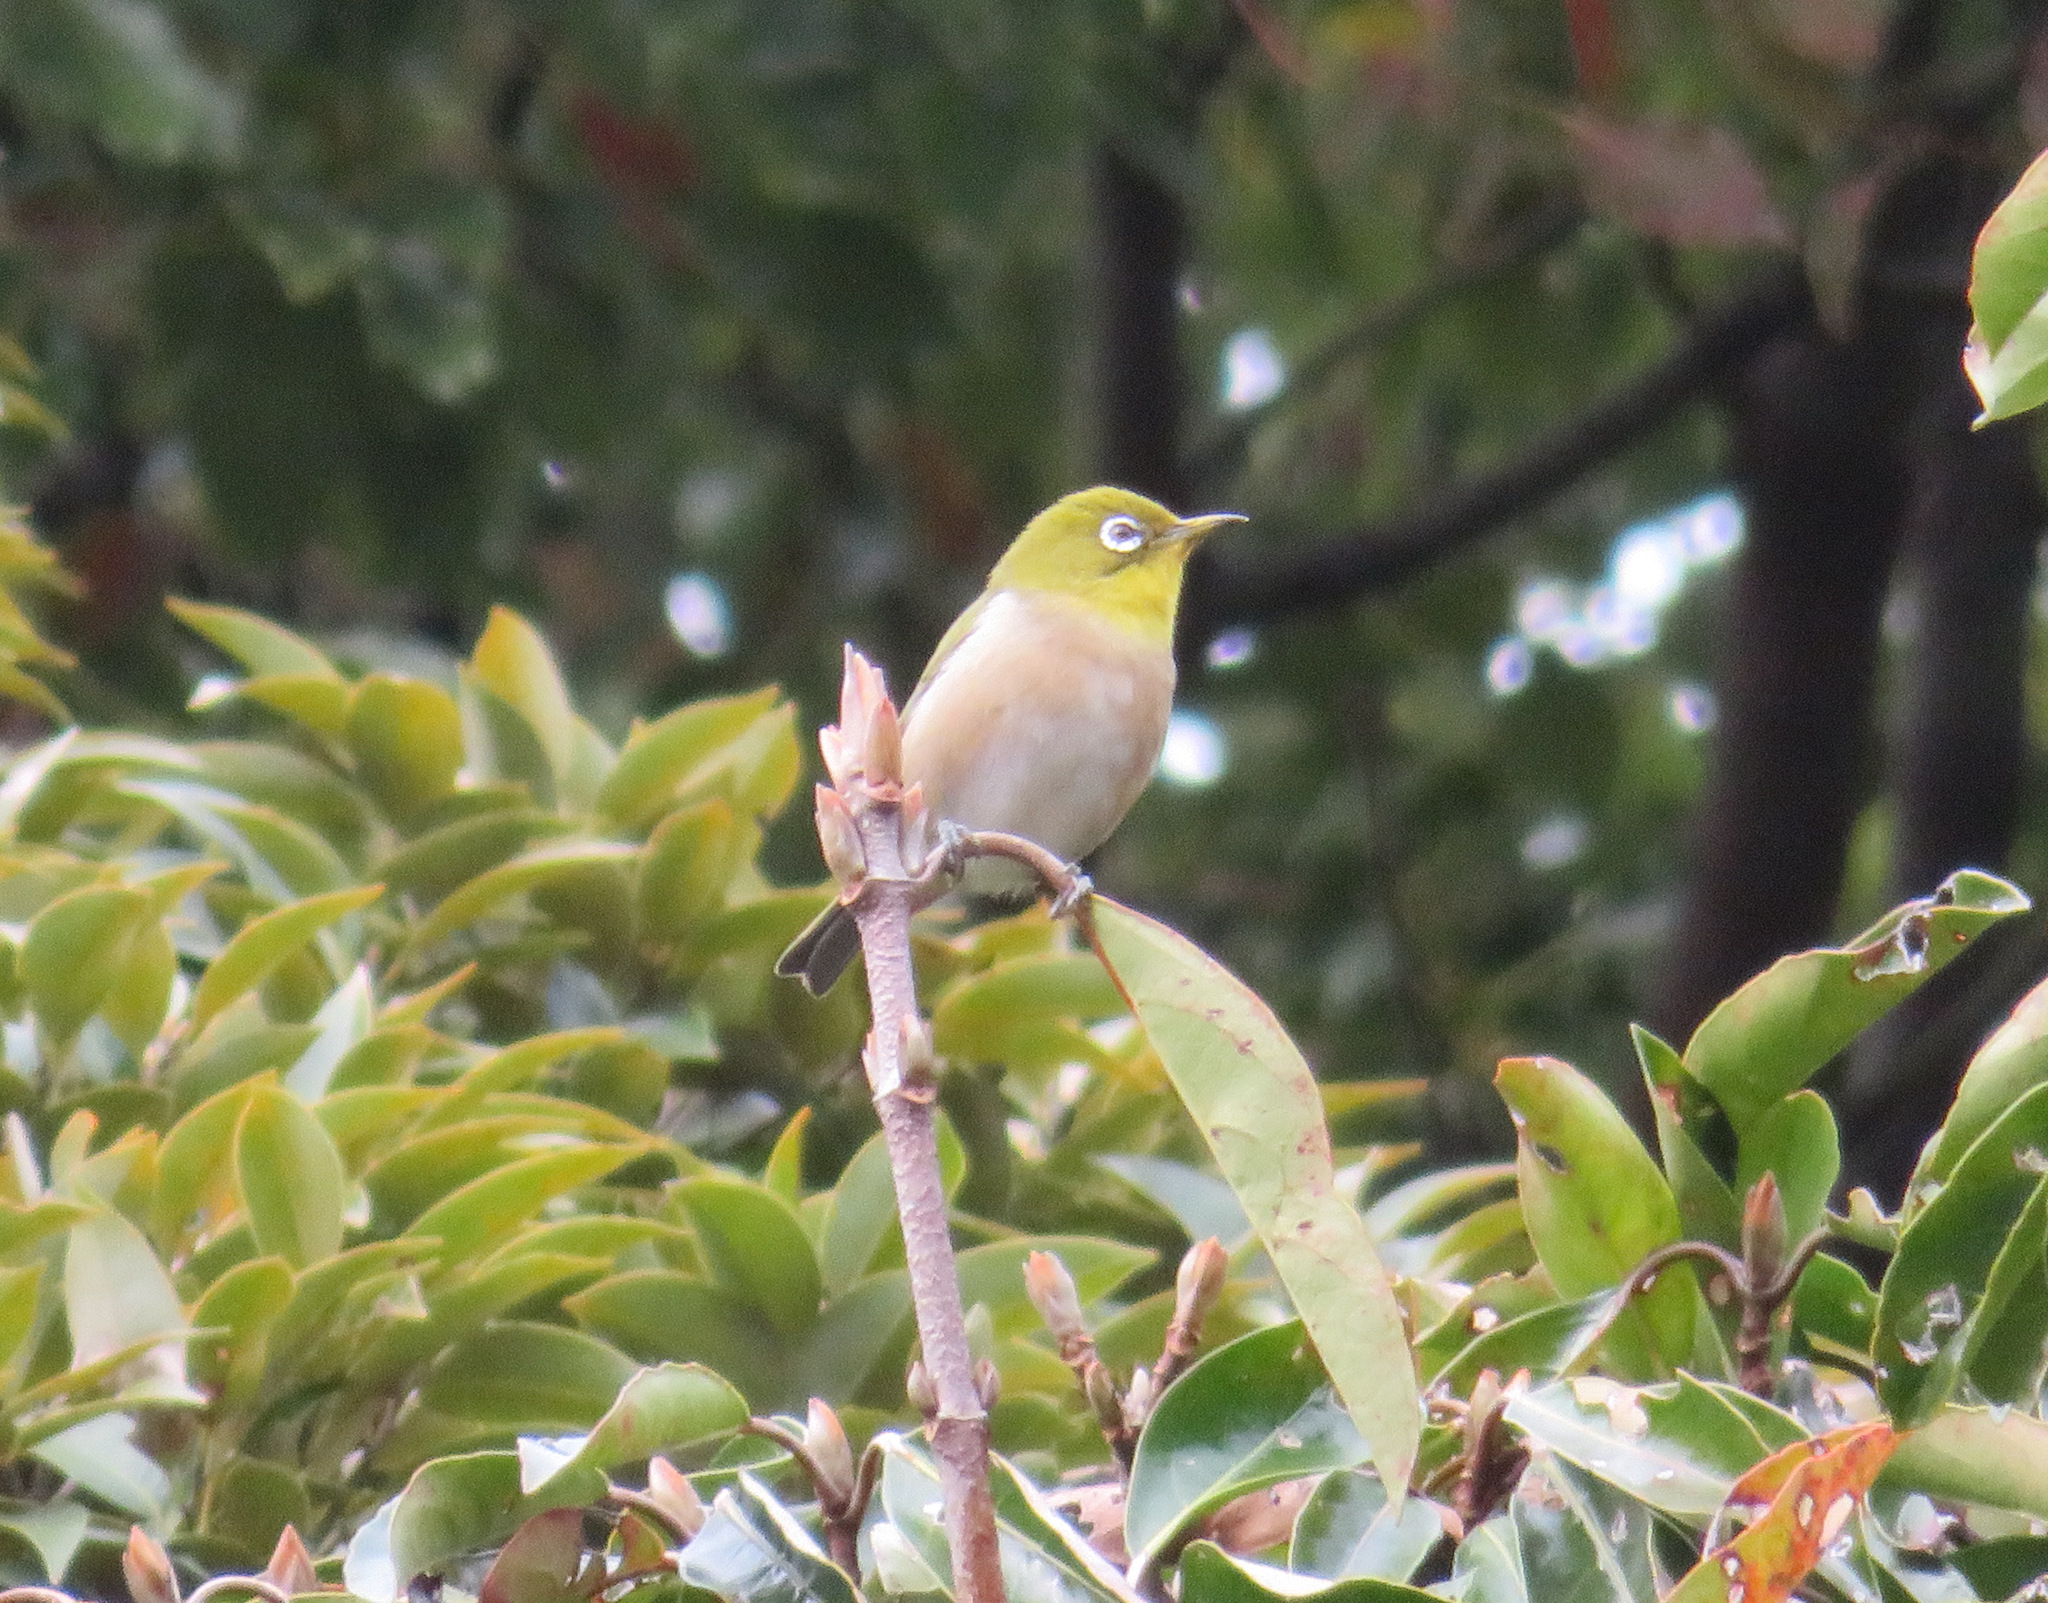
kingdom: Animalia
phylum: Chordata
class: Aves
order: Passeriformes
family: Zosteropidae
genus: Zosterops
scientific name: Zosterops japonicus
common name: Japanese white-eye
